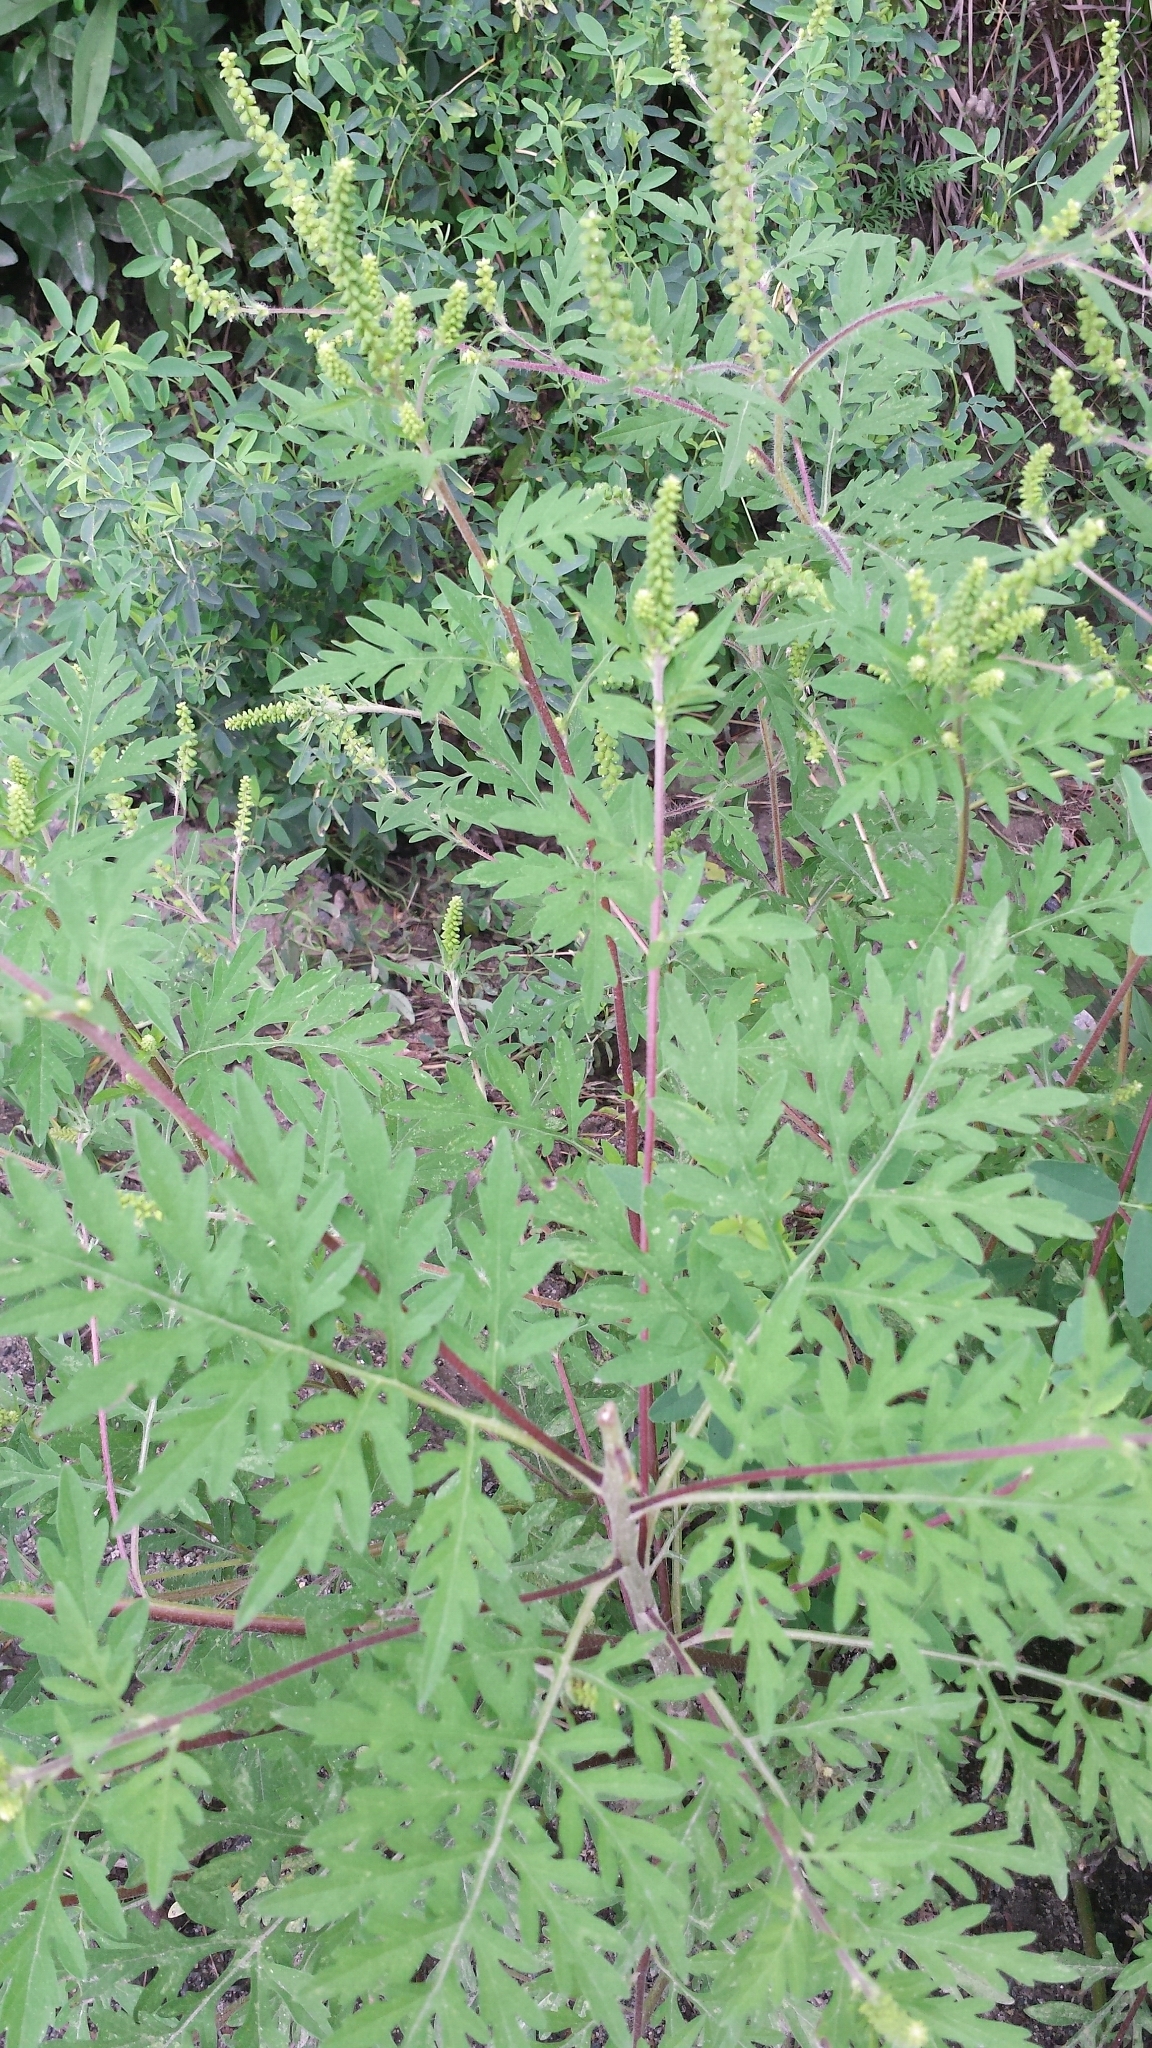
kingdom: Plantae
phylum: Tracheophyta
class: Magnoliopsida
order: Asterales
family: Asteraceae
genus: Ambrosia
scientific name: Ambrosia artemisiifolia
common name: Annual ragweed
